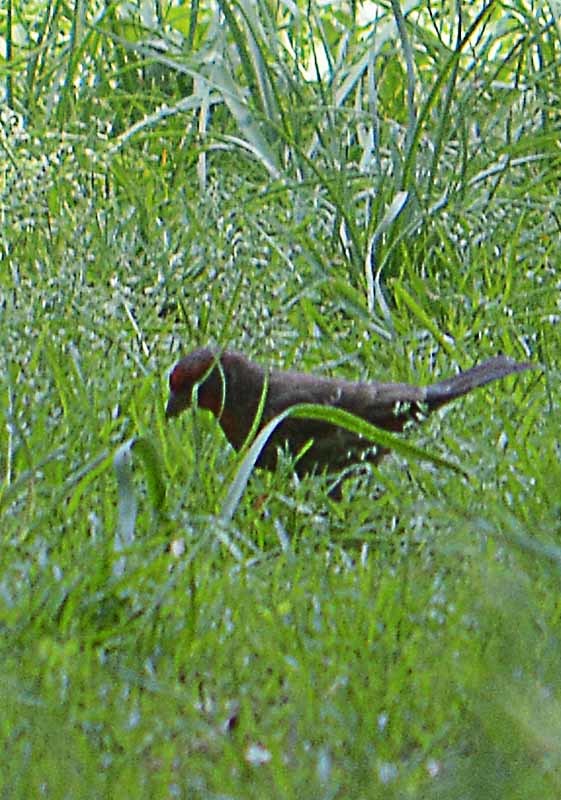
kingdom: Animalia
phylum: Chordata
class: Aves
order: Passeriformes
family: Fringillidae
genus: Haemorhous
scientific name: Haemorhous mexicanus
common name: House finch
